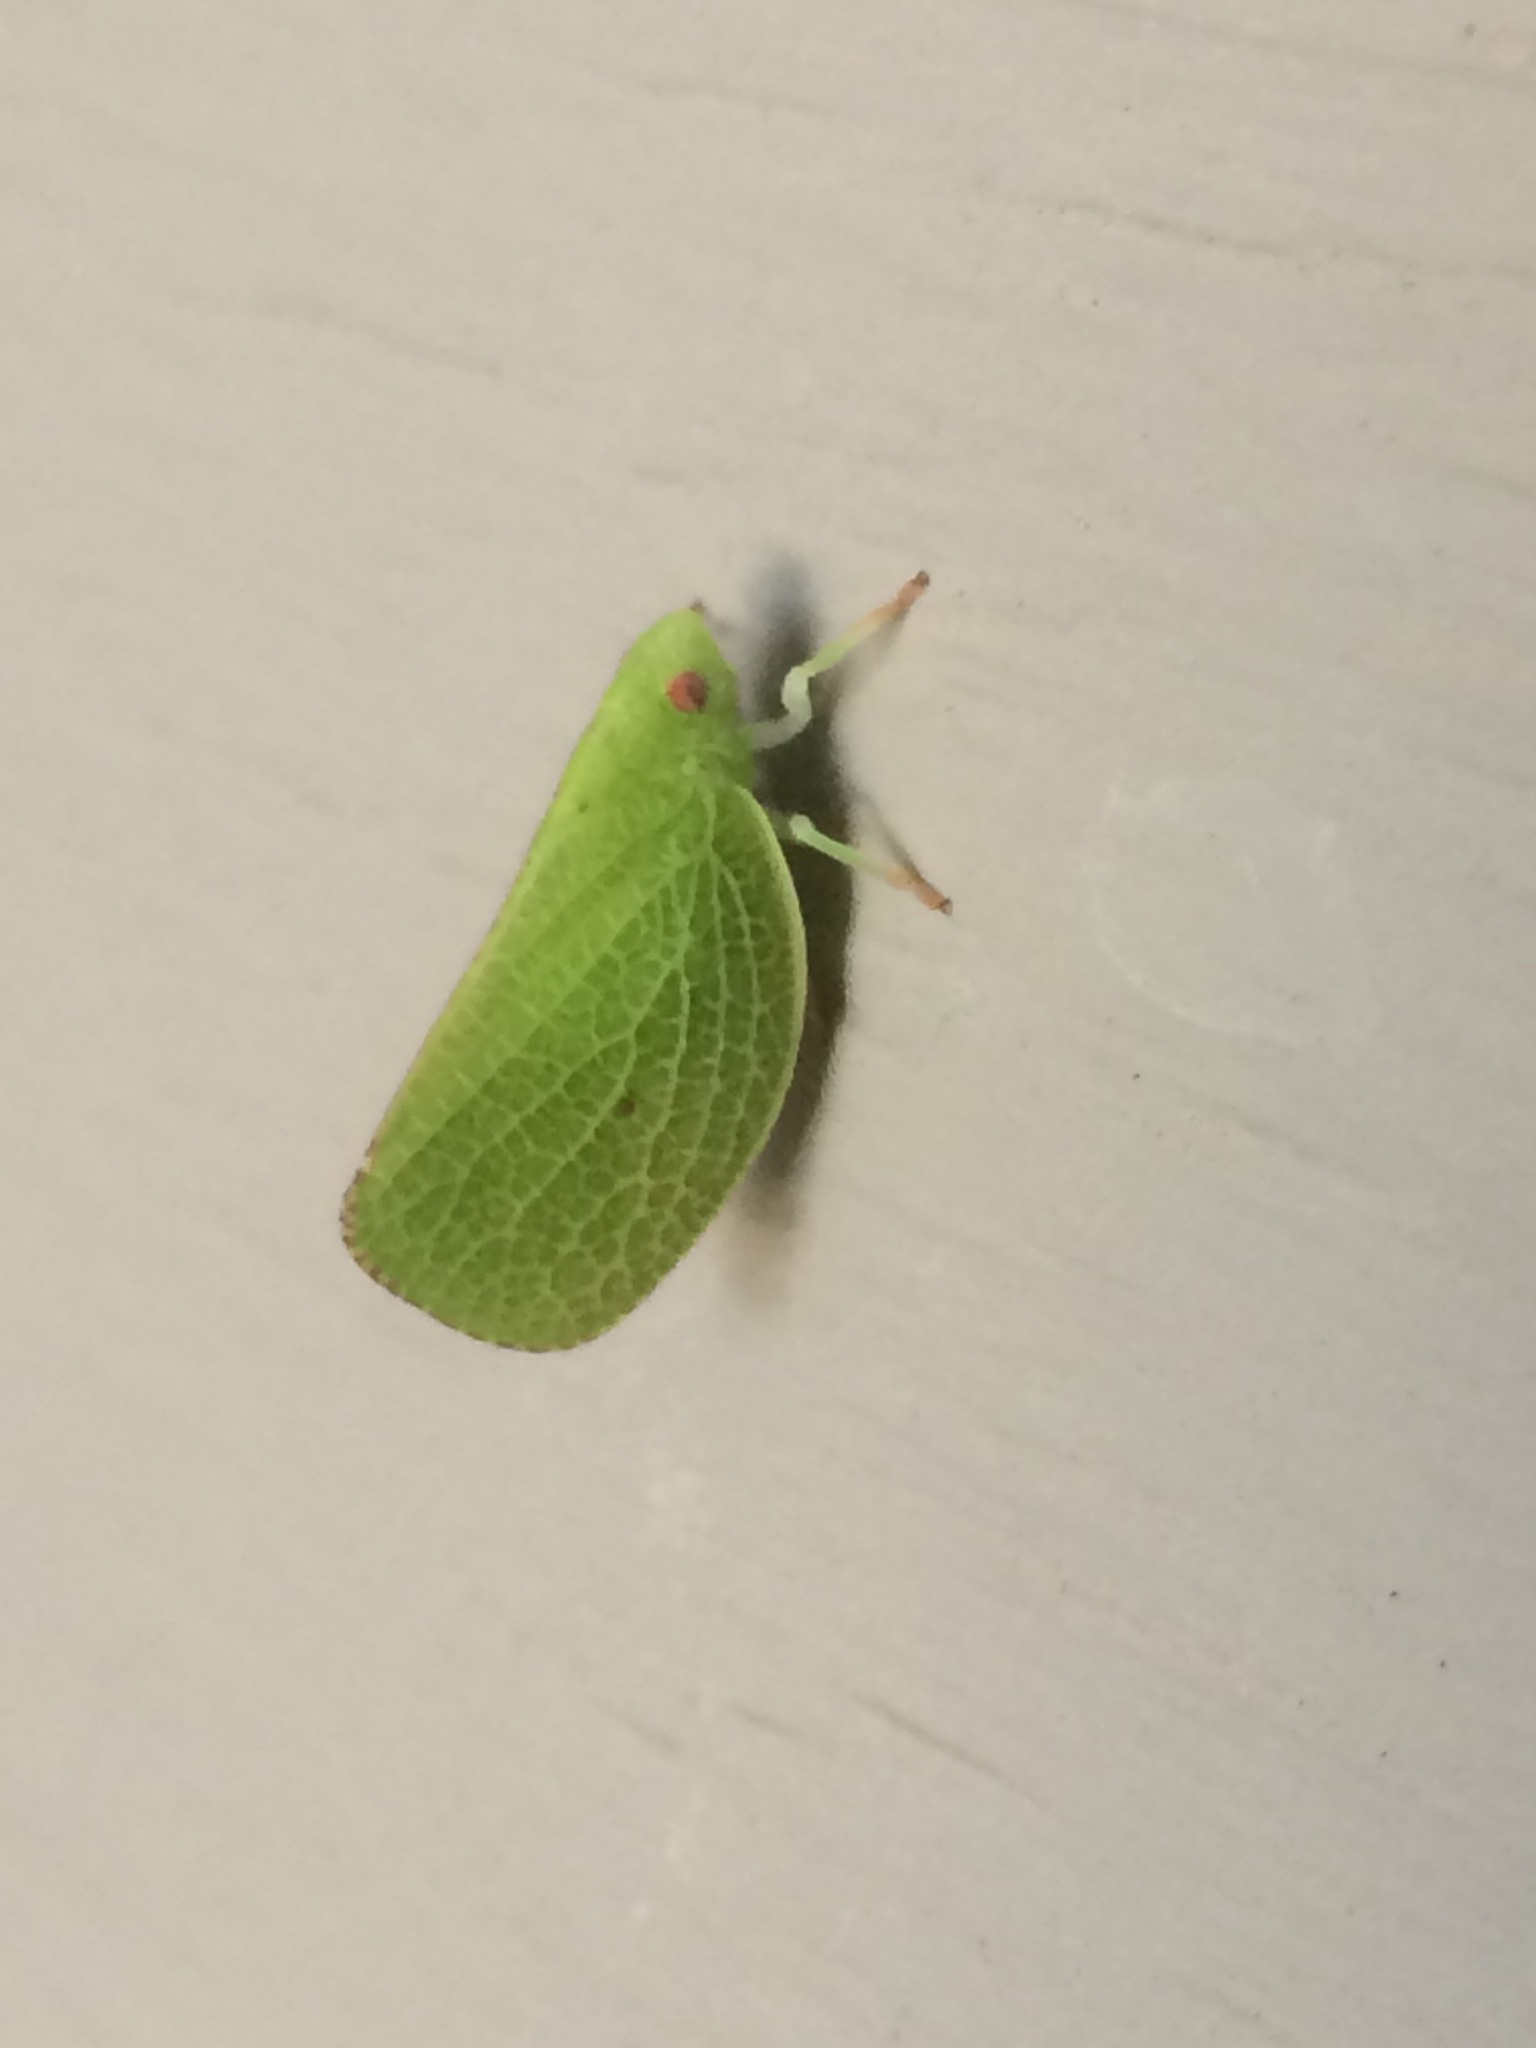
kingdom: Animalia
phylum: Arthropoda
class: Insecta
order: Hemiptera
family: Acanaloniidae
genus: Acanalonia
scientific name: Acanalonia conica
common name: Green cone-headed planthopper
